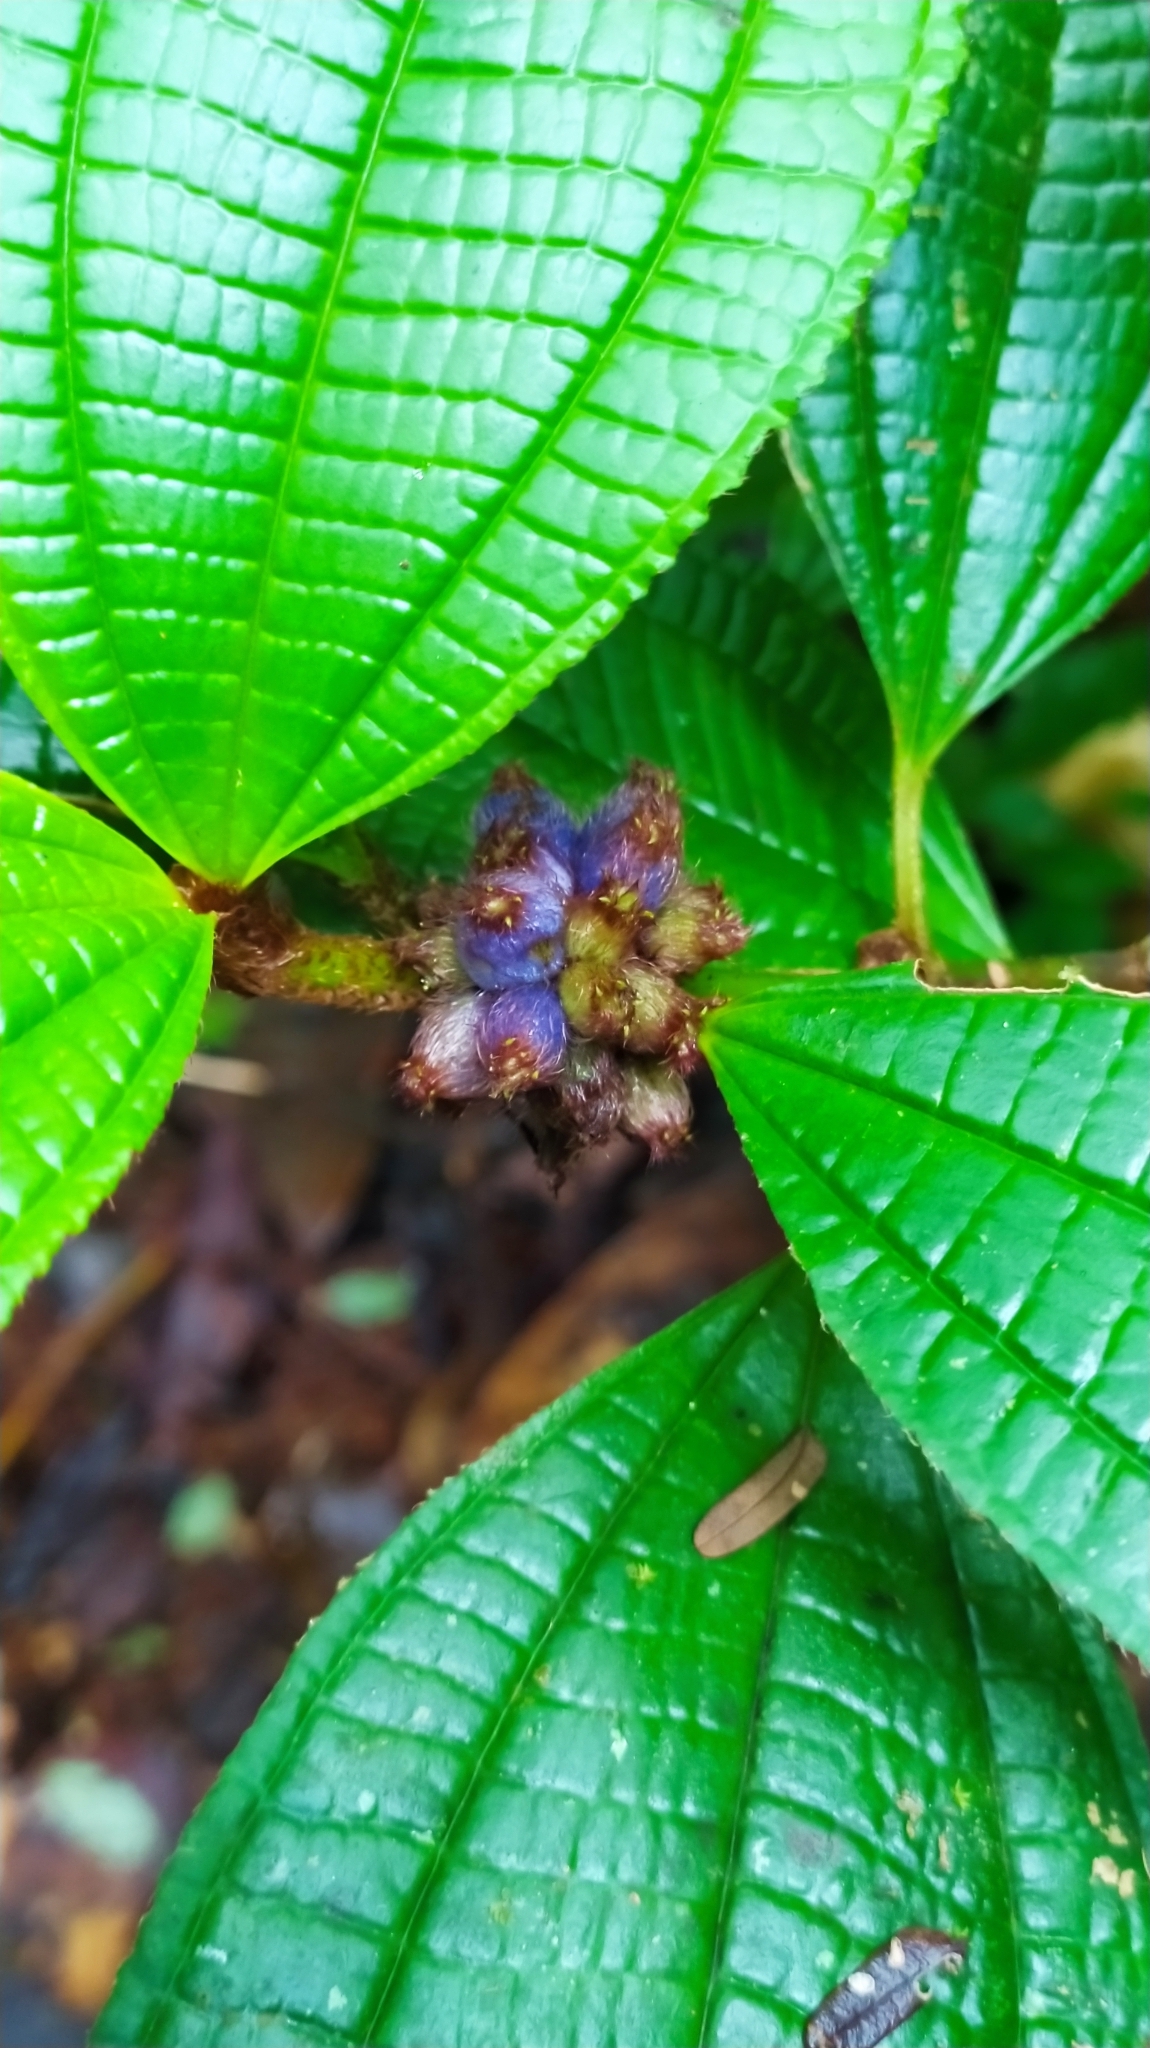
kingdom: Plantae
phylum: Tracheophyta
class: Magnoliopsida
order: Myrtales
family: Melastomataceae
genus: Miconia
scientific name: Miconia conglomerata
